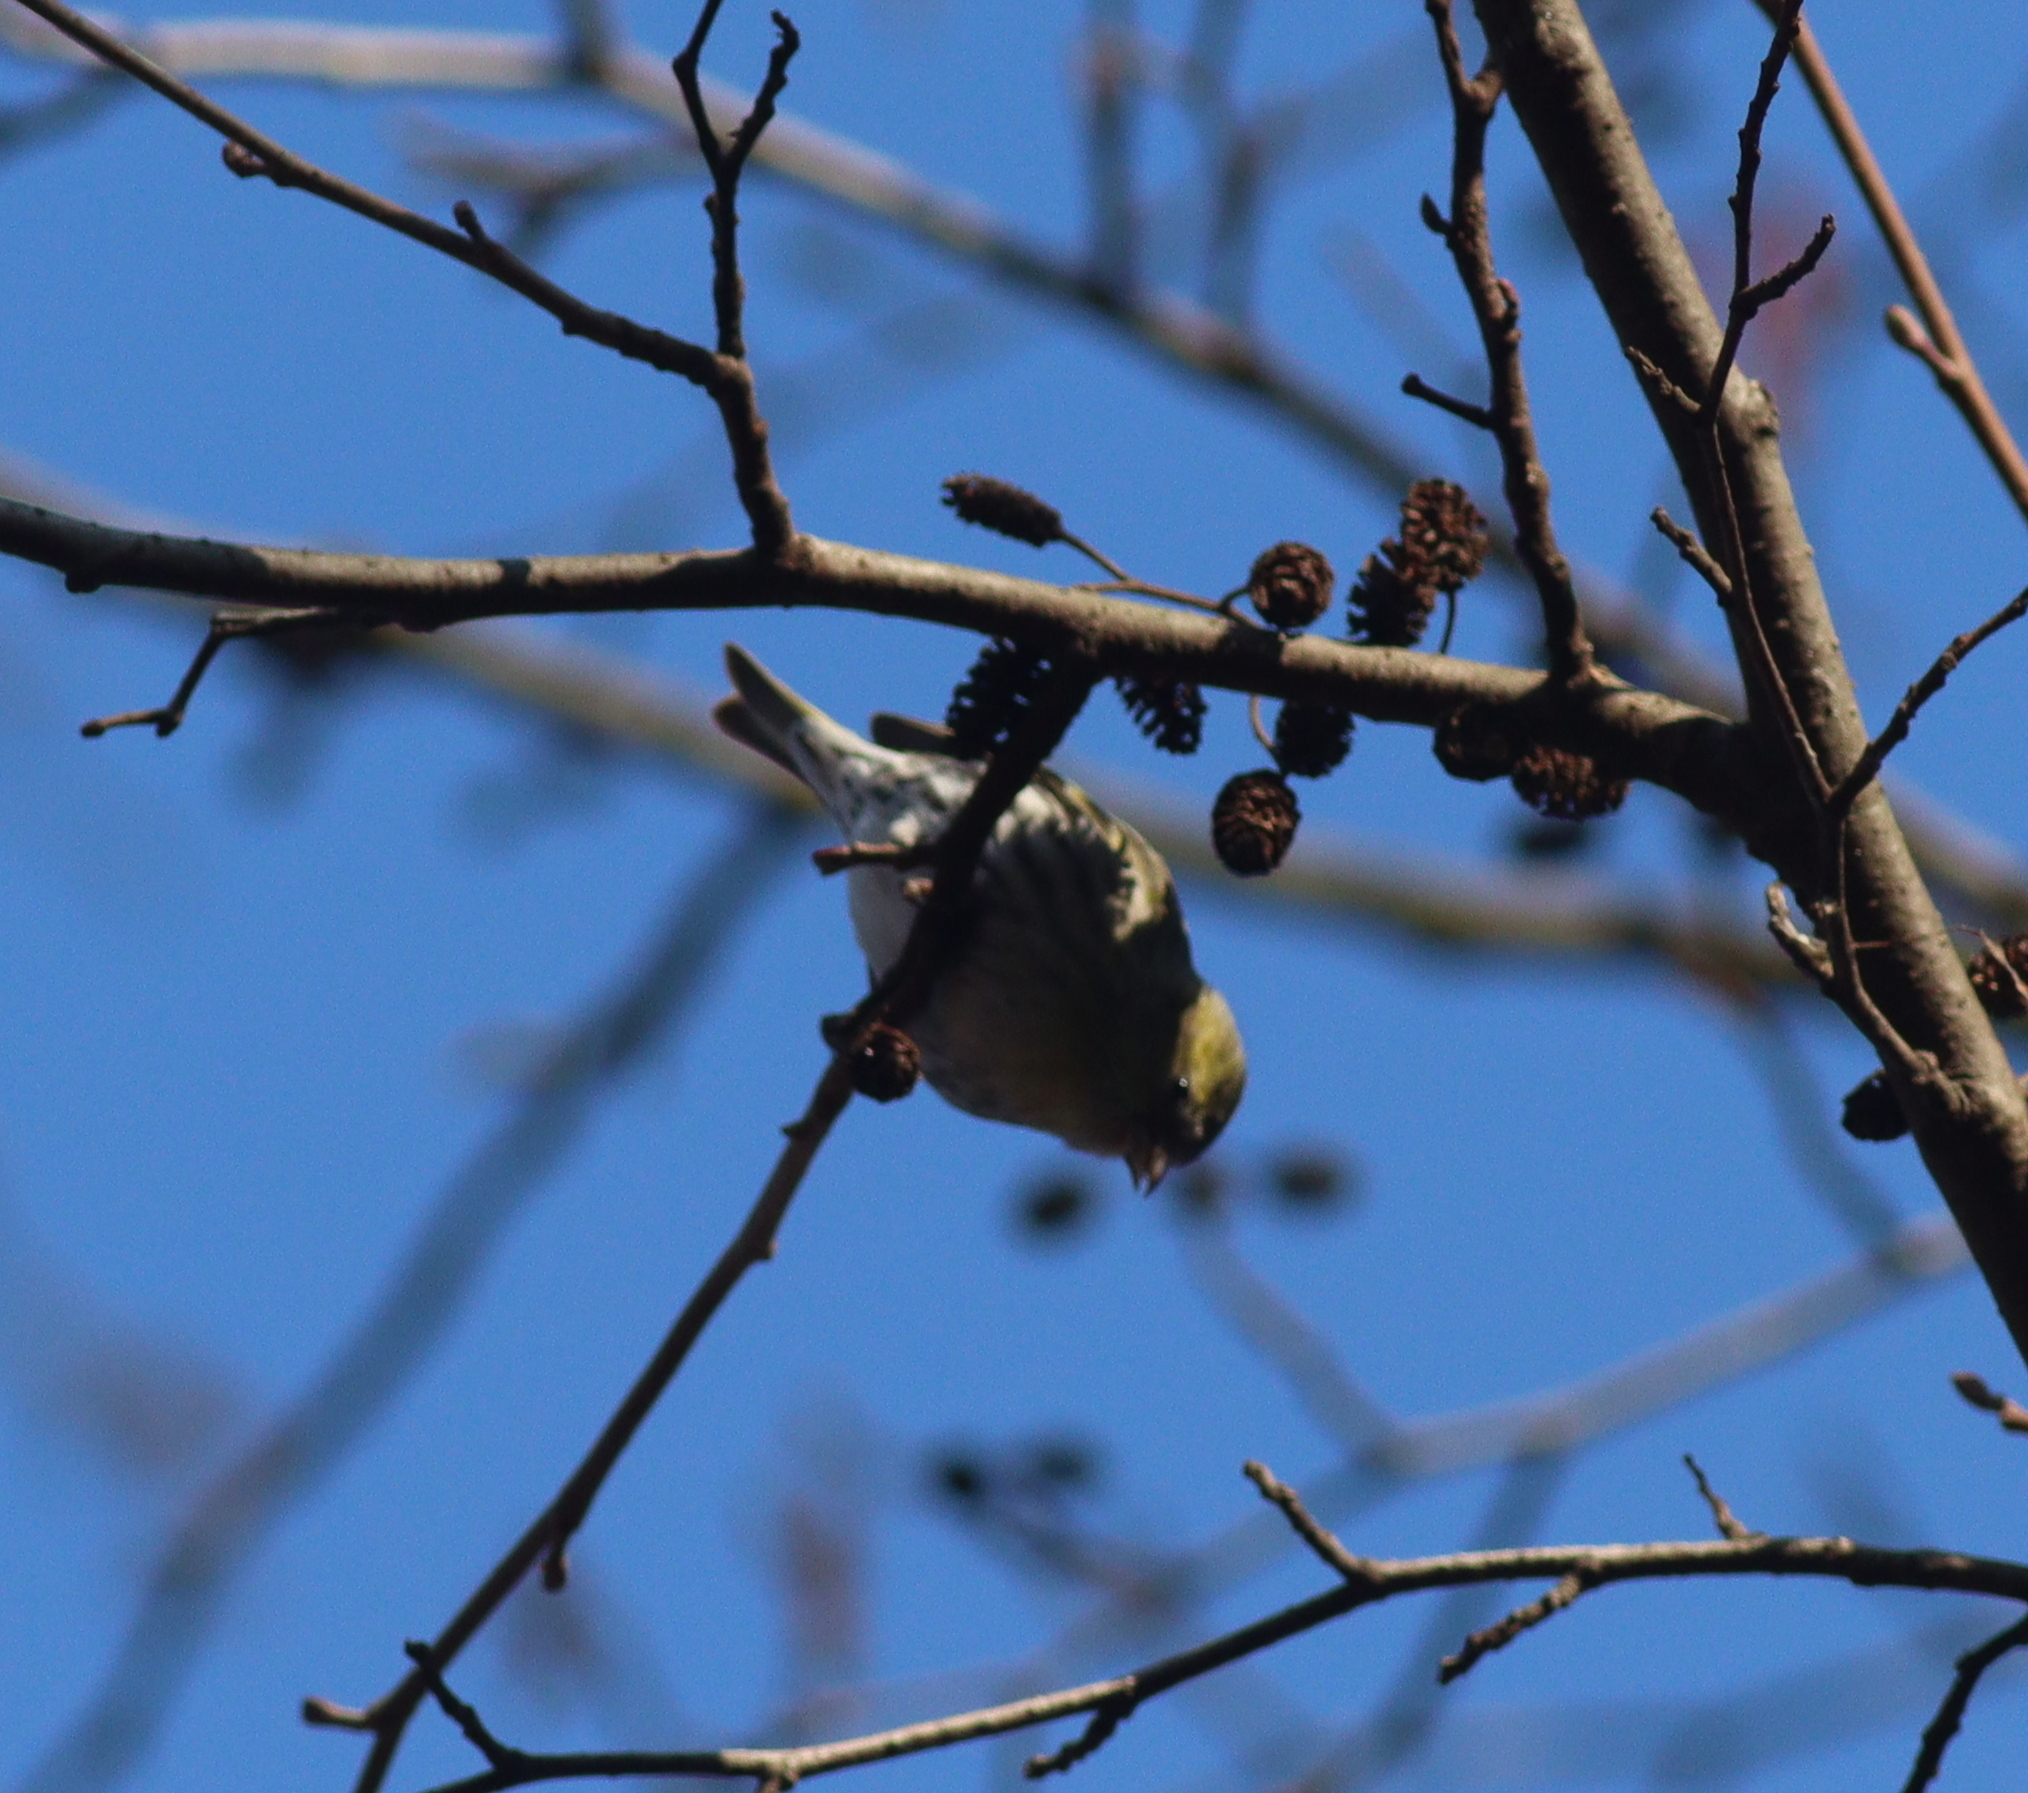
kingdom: Animalia
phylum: Chordata
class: Aves
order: Passeriformes
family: Fringillidae
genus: Spinus
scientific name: Spinus spinus
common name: Eurasian siskin
